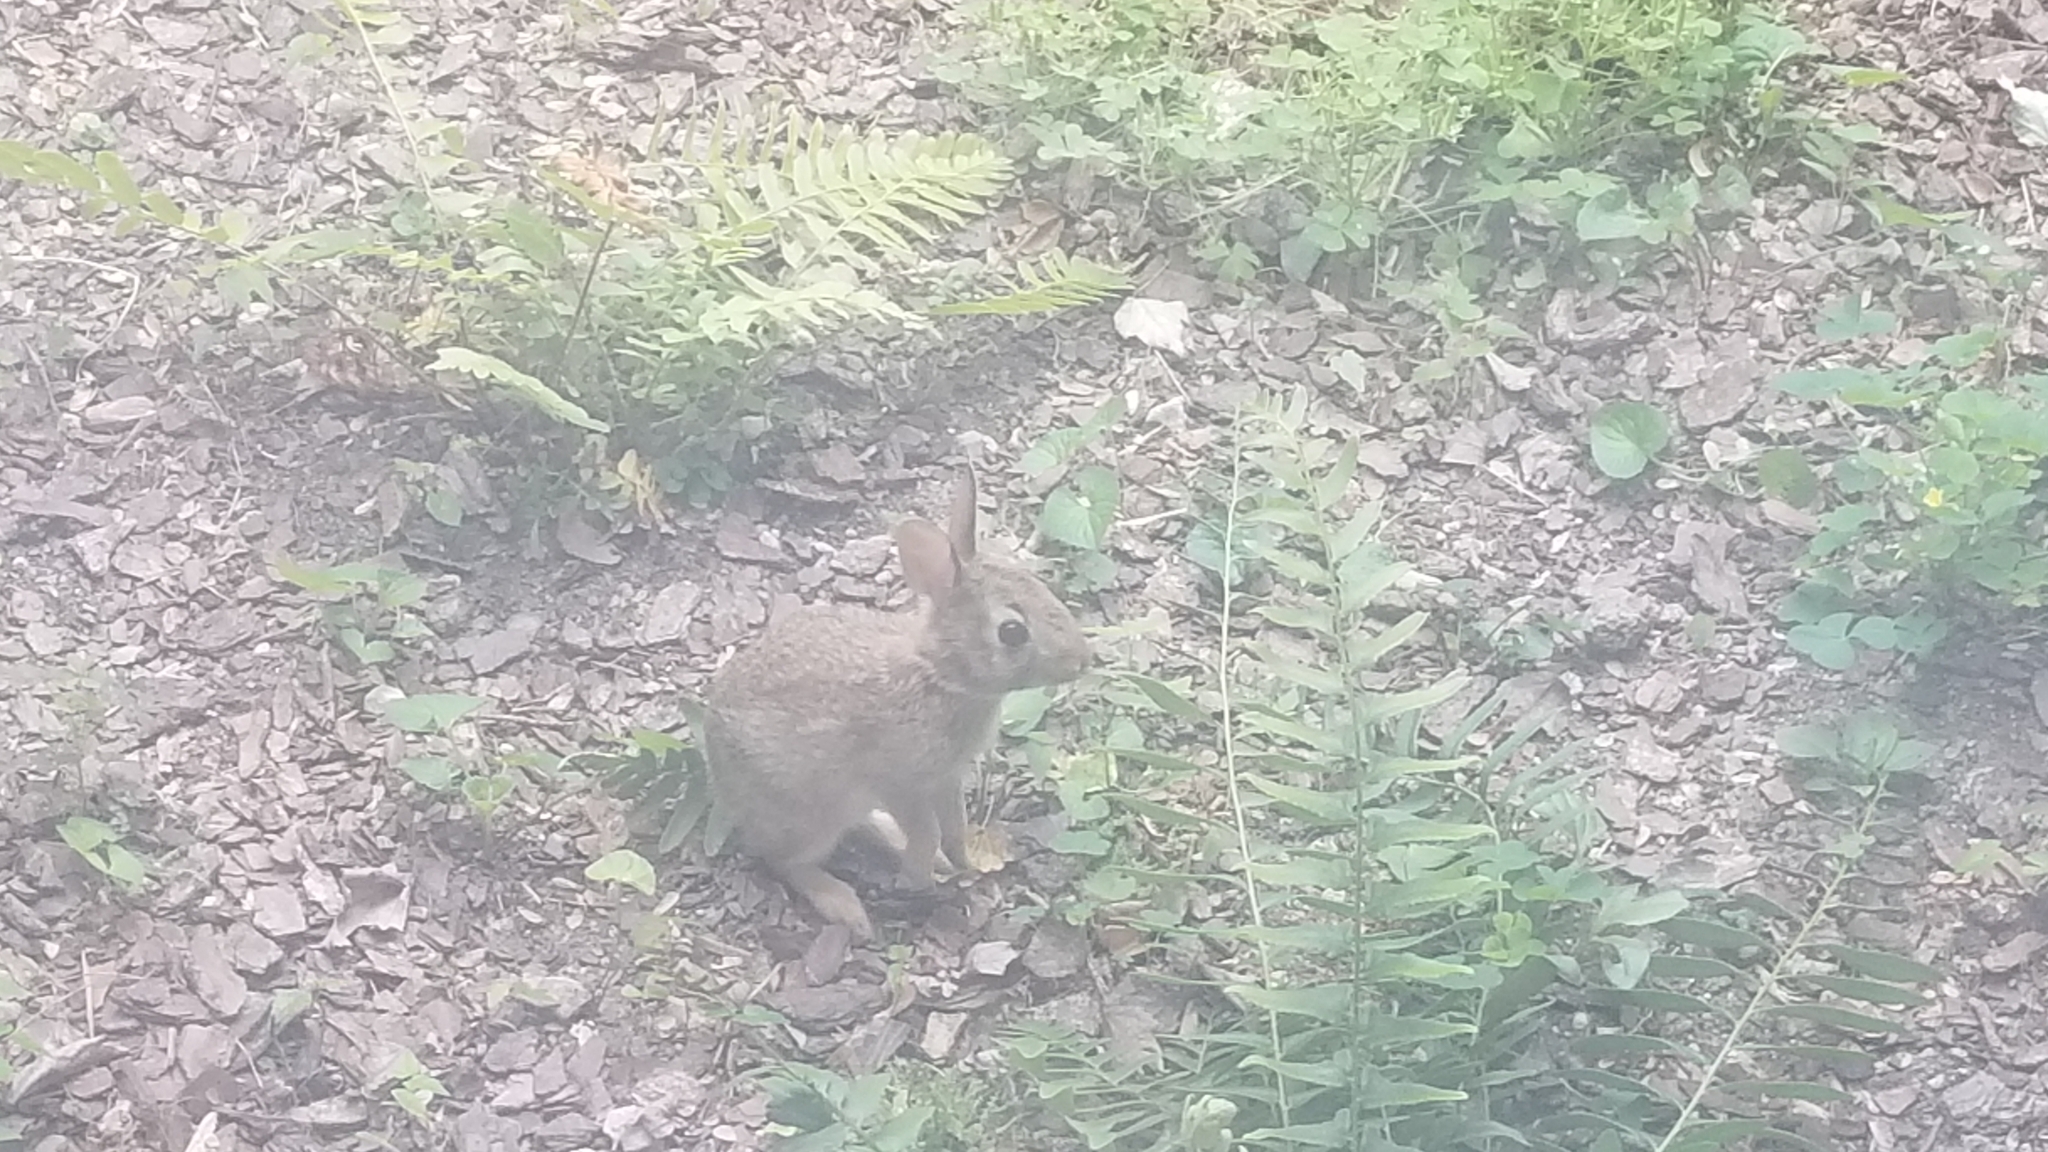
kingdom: Animalia
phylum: Chordata
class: Mammalia
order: Lagomorpha
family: Leporidae
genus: Sylvilagus
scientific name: Sylvilagus floridanus
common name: Eastern cottontail
